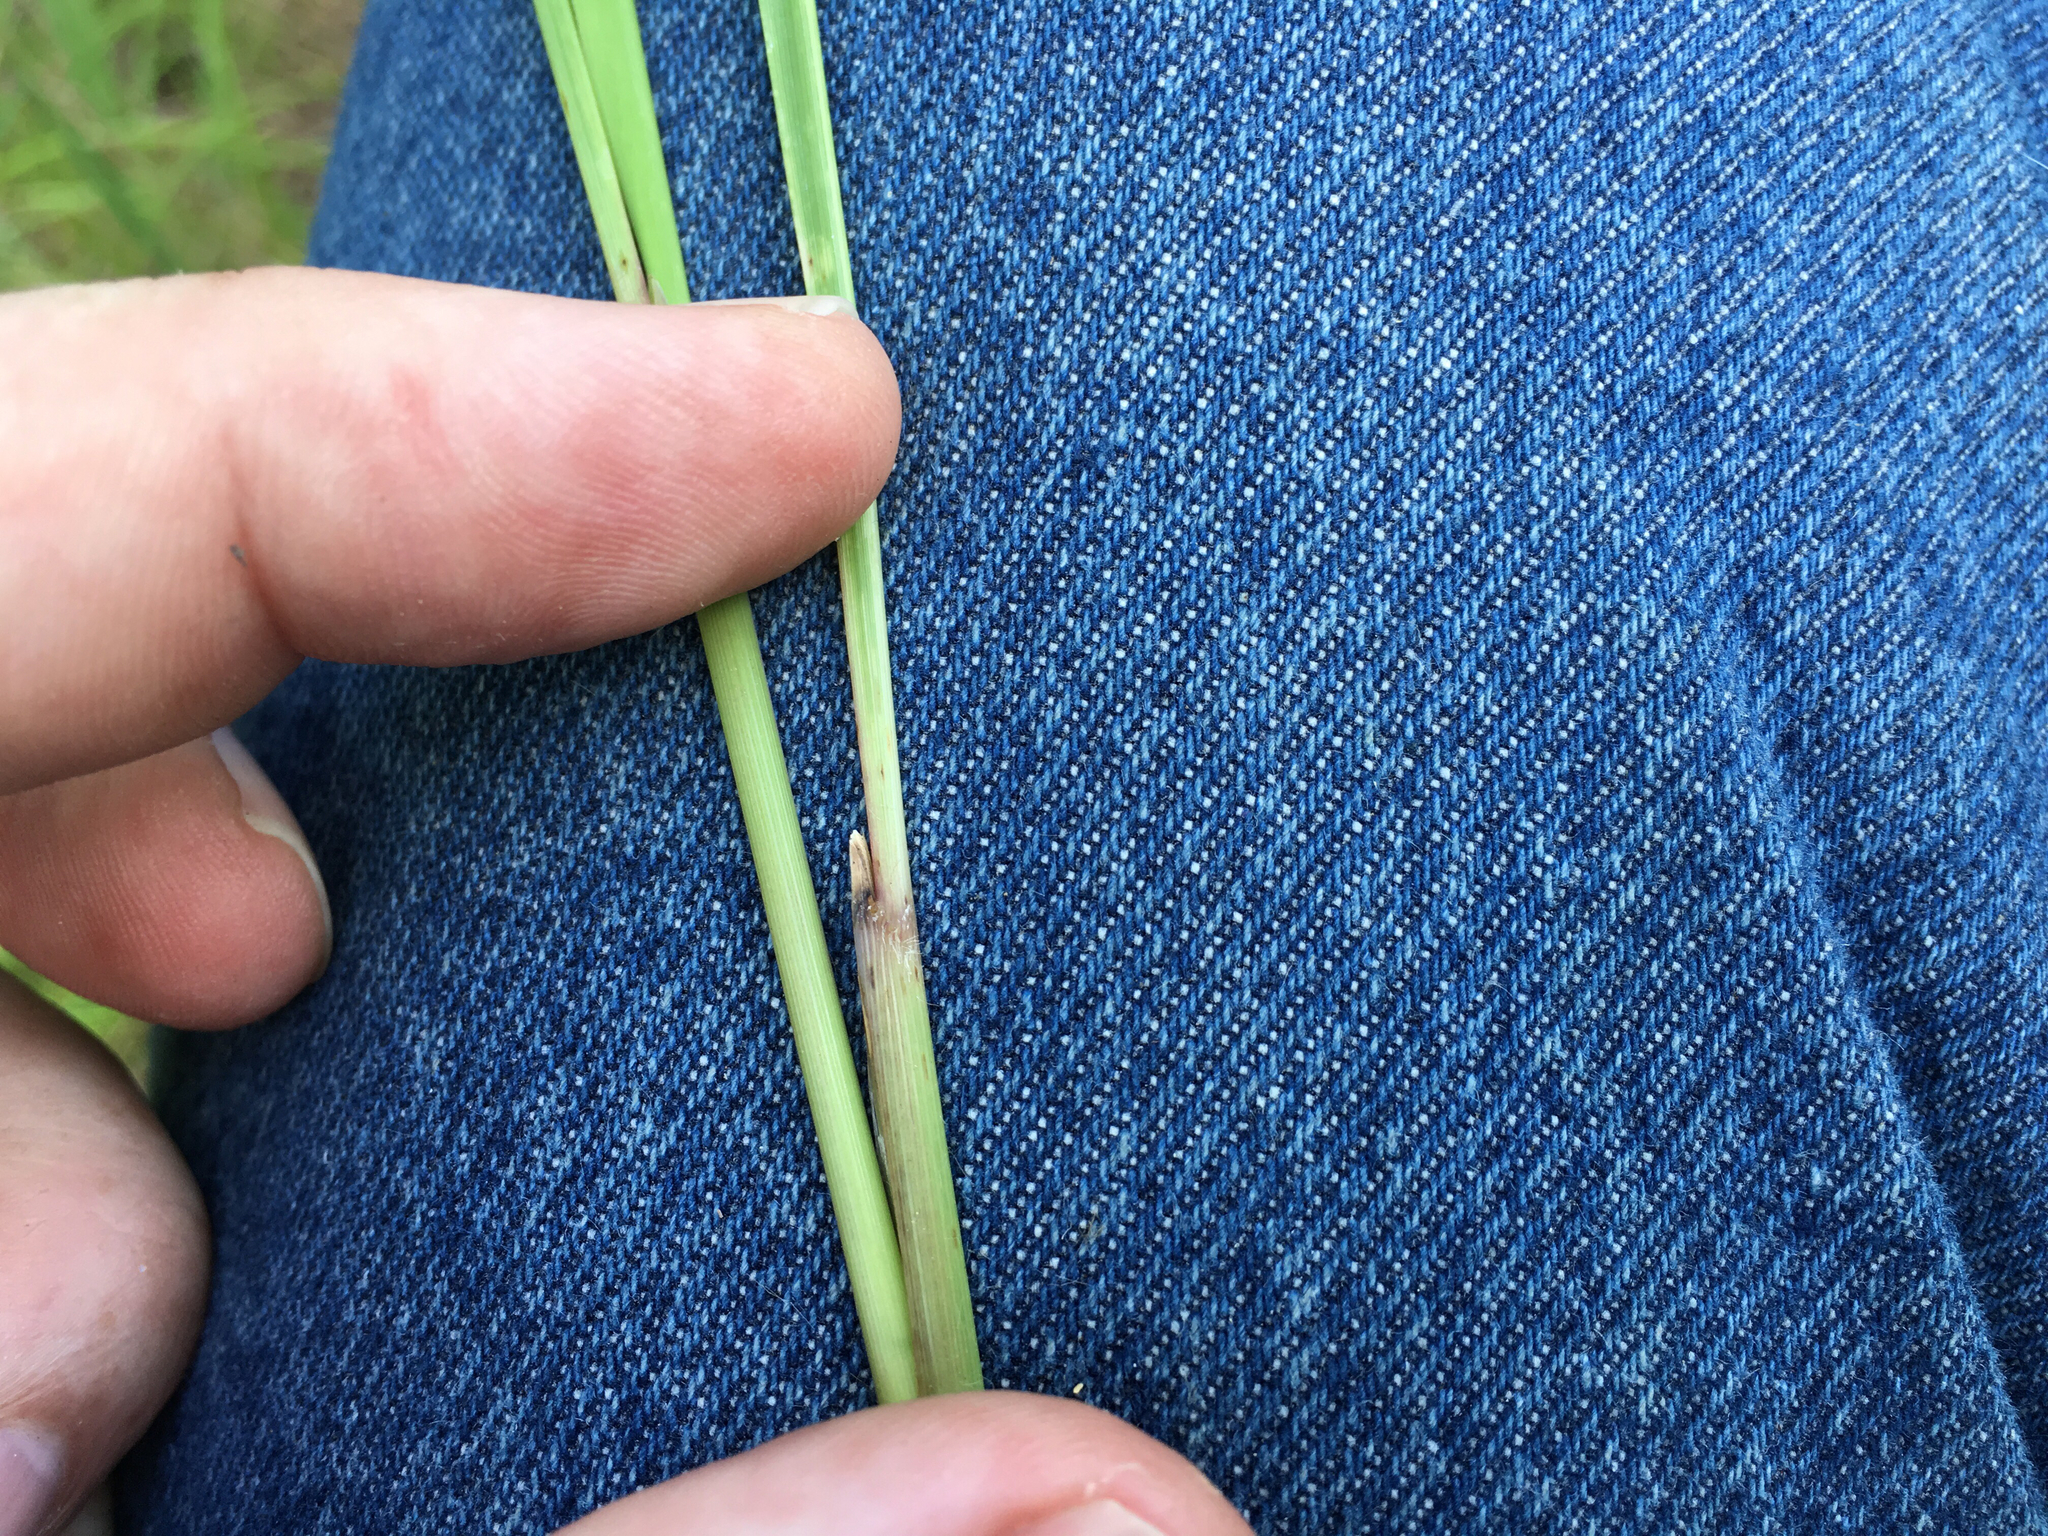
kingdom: Plantae
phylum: Tracheophyta
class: Liliopsida
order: Poales
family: Poaceae
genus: Sorghastrum
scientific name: Sorghastrum nutans
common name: Indian grass
